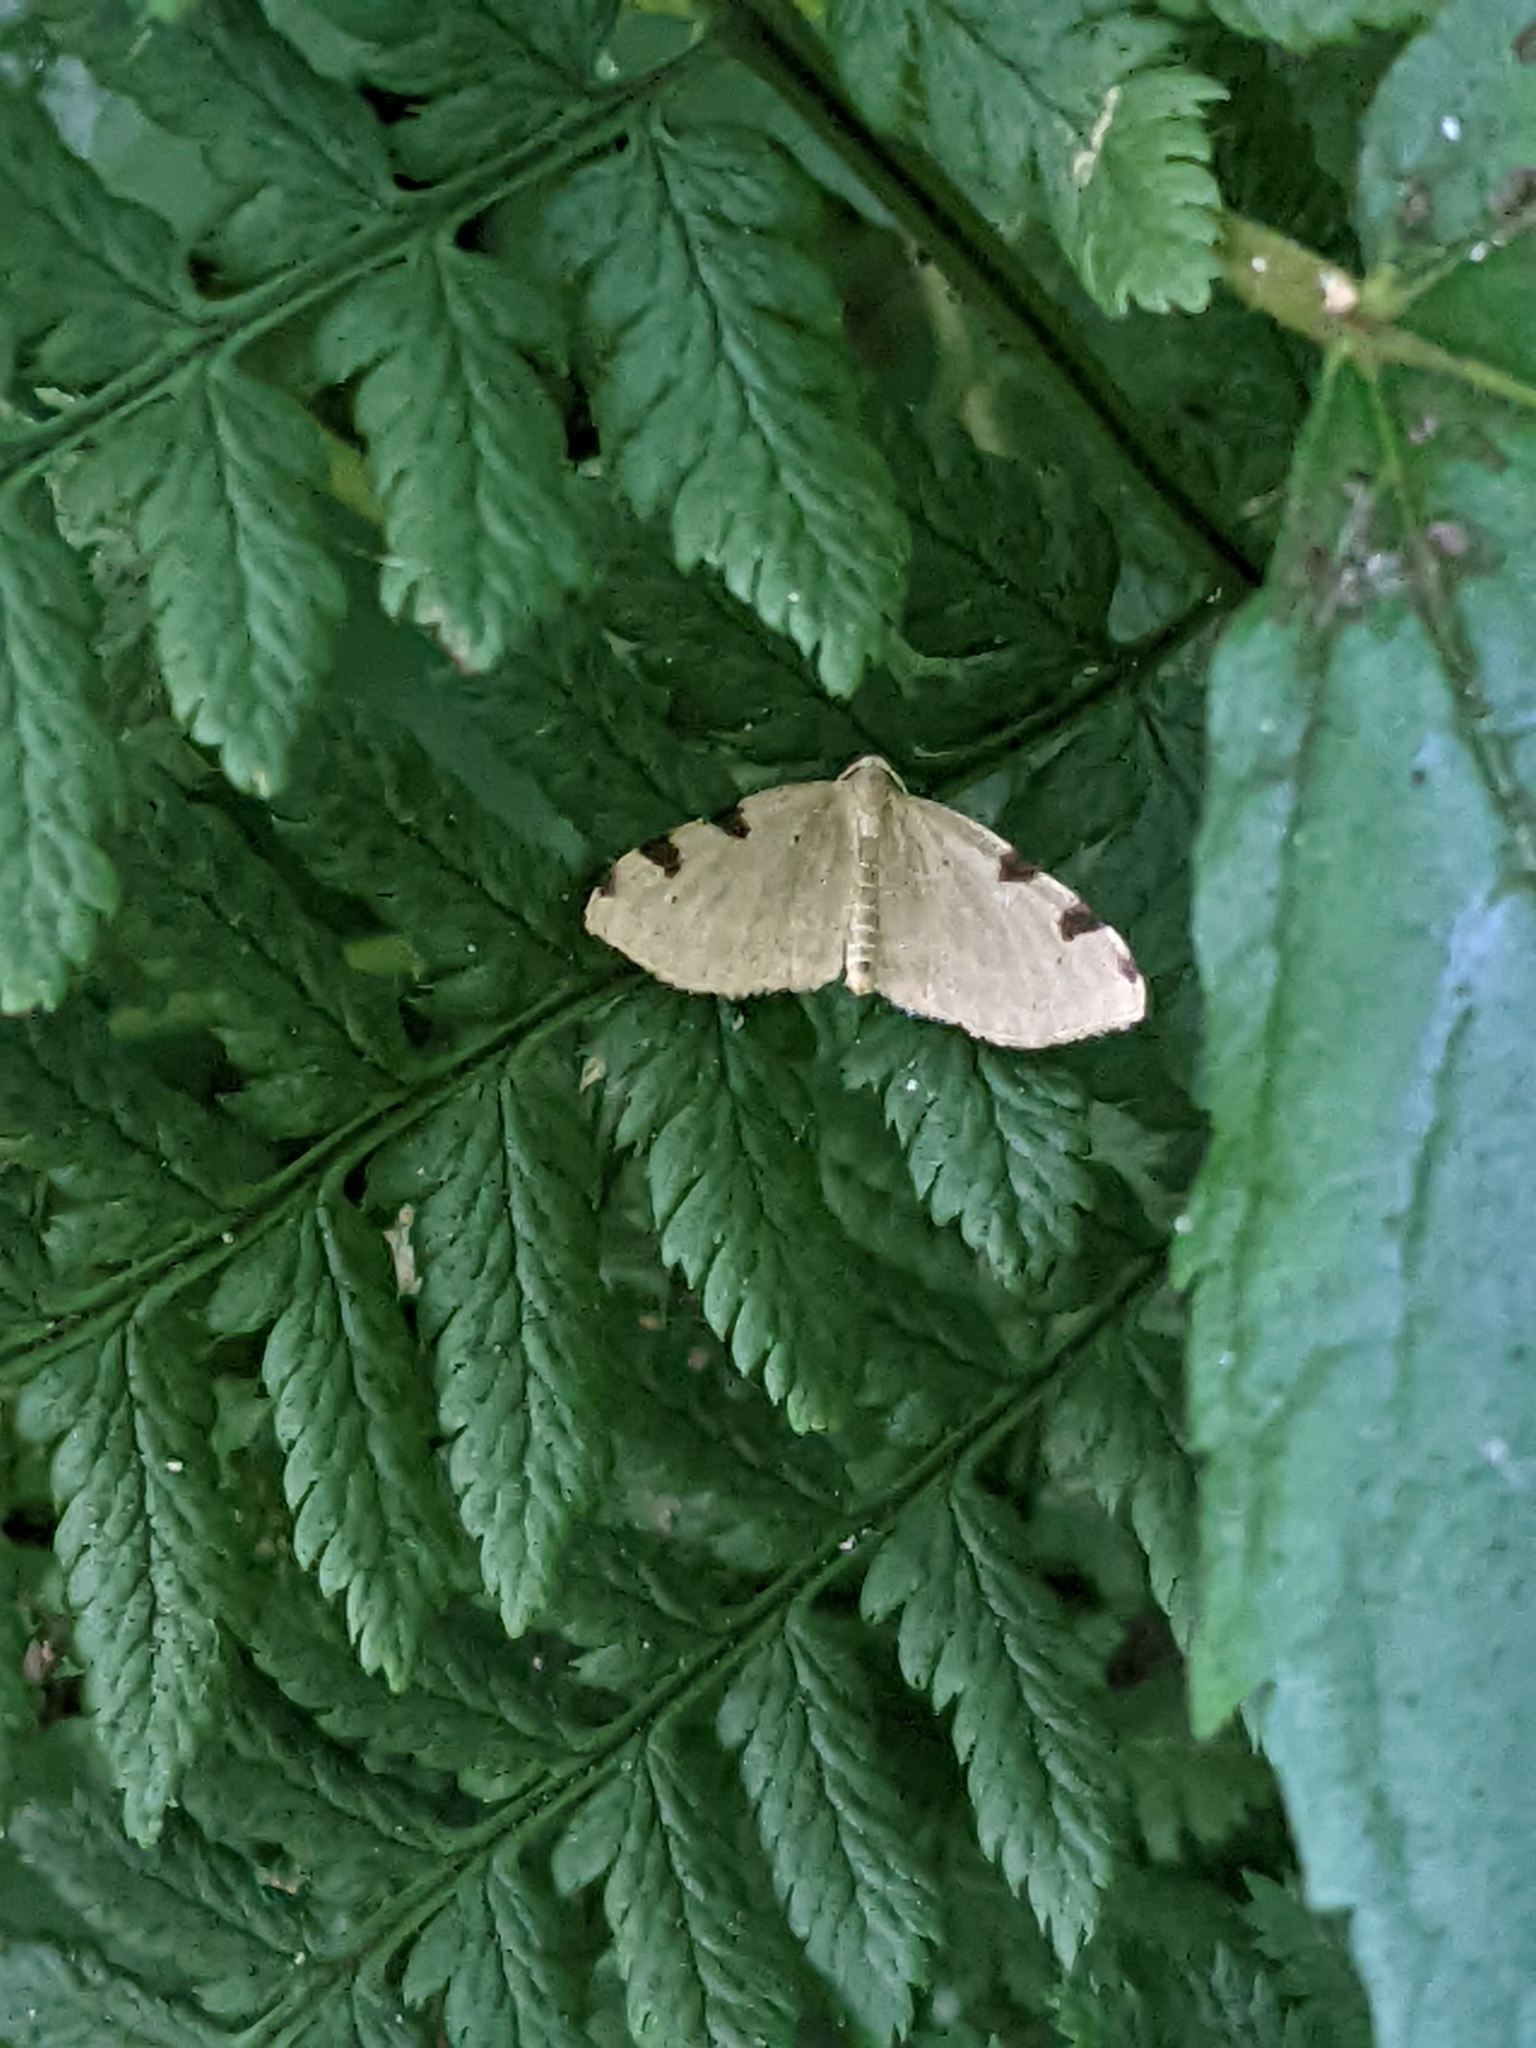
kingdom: Animalia
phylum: Arthropoda
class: Insecta
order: Lepidoptera
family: Geometridae
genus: Heterophleps
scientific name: Heterophleps triguttaria
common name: Three-spotted fillip
